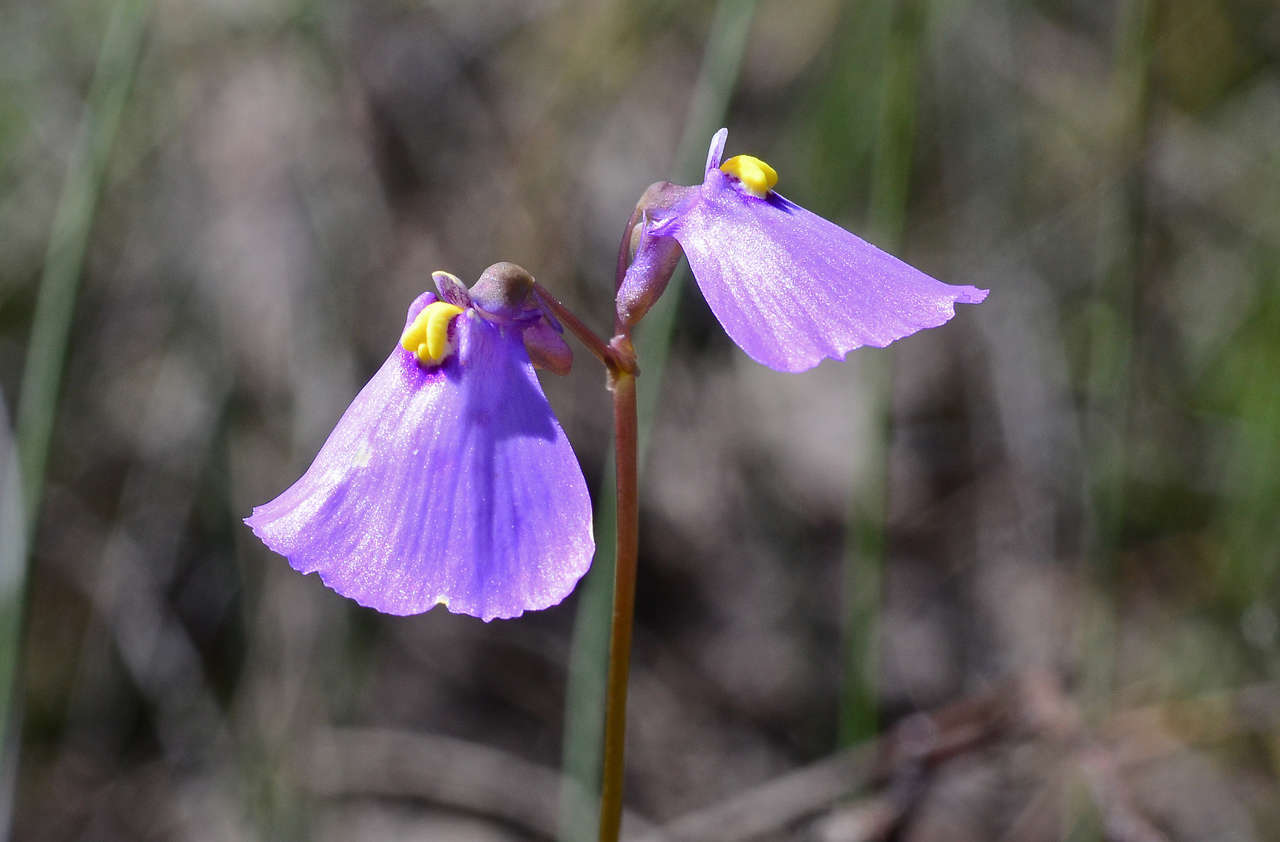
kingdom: Plantae
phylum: Tracheophyta
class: Magnoliopsida
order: Lamiales
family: Lentibulariaceae
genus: Utricularia
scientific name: Utricularia barkeri
